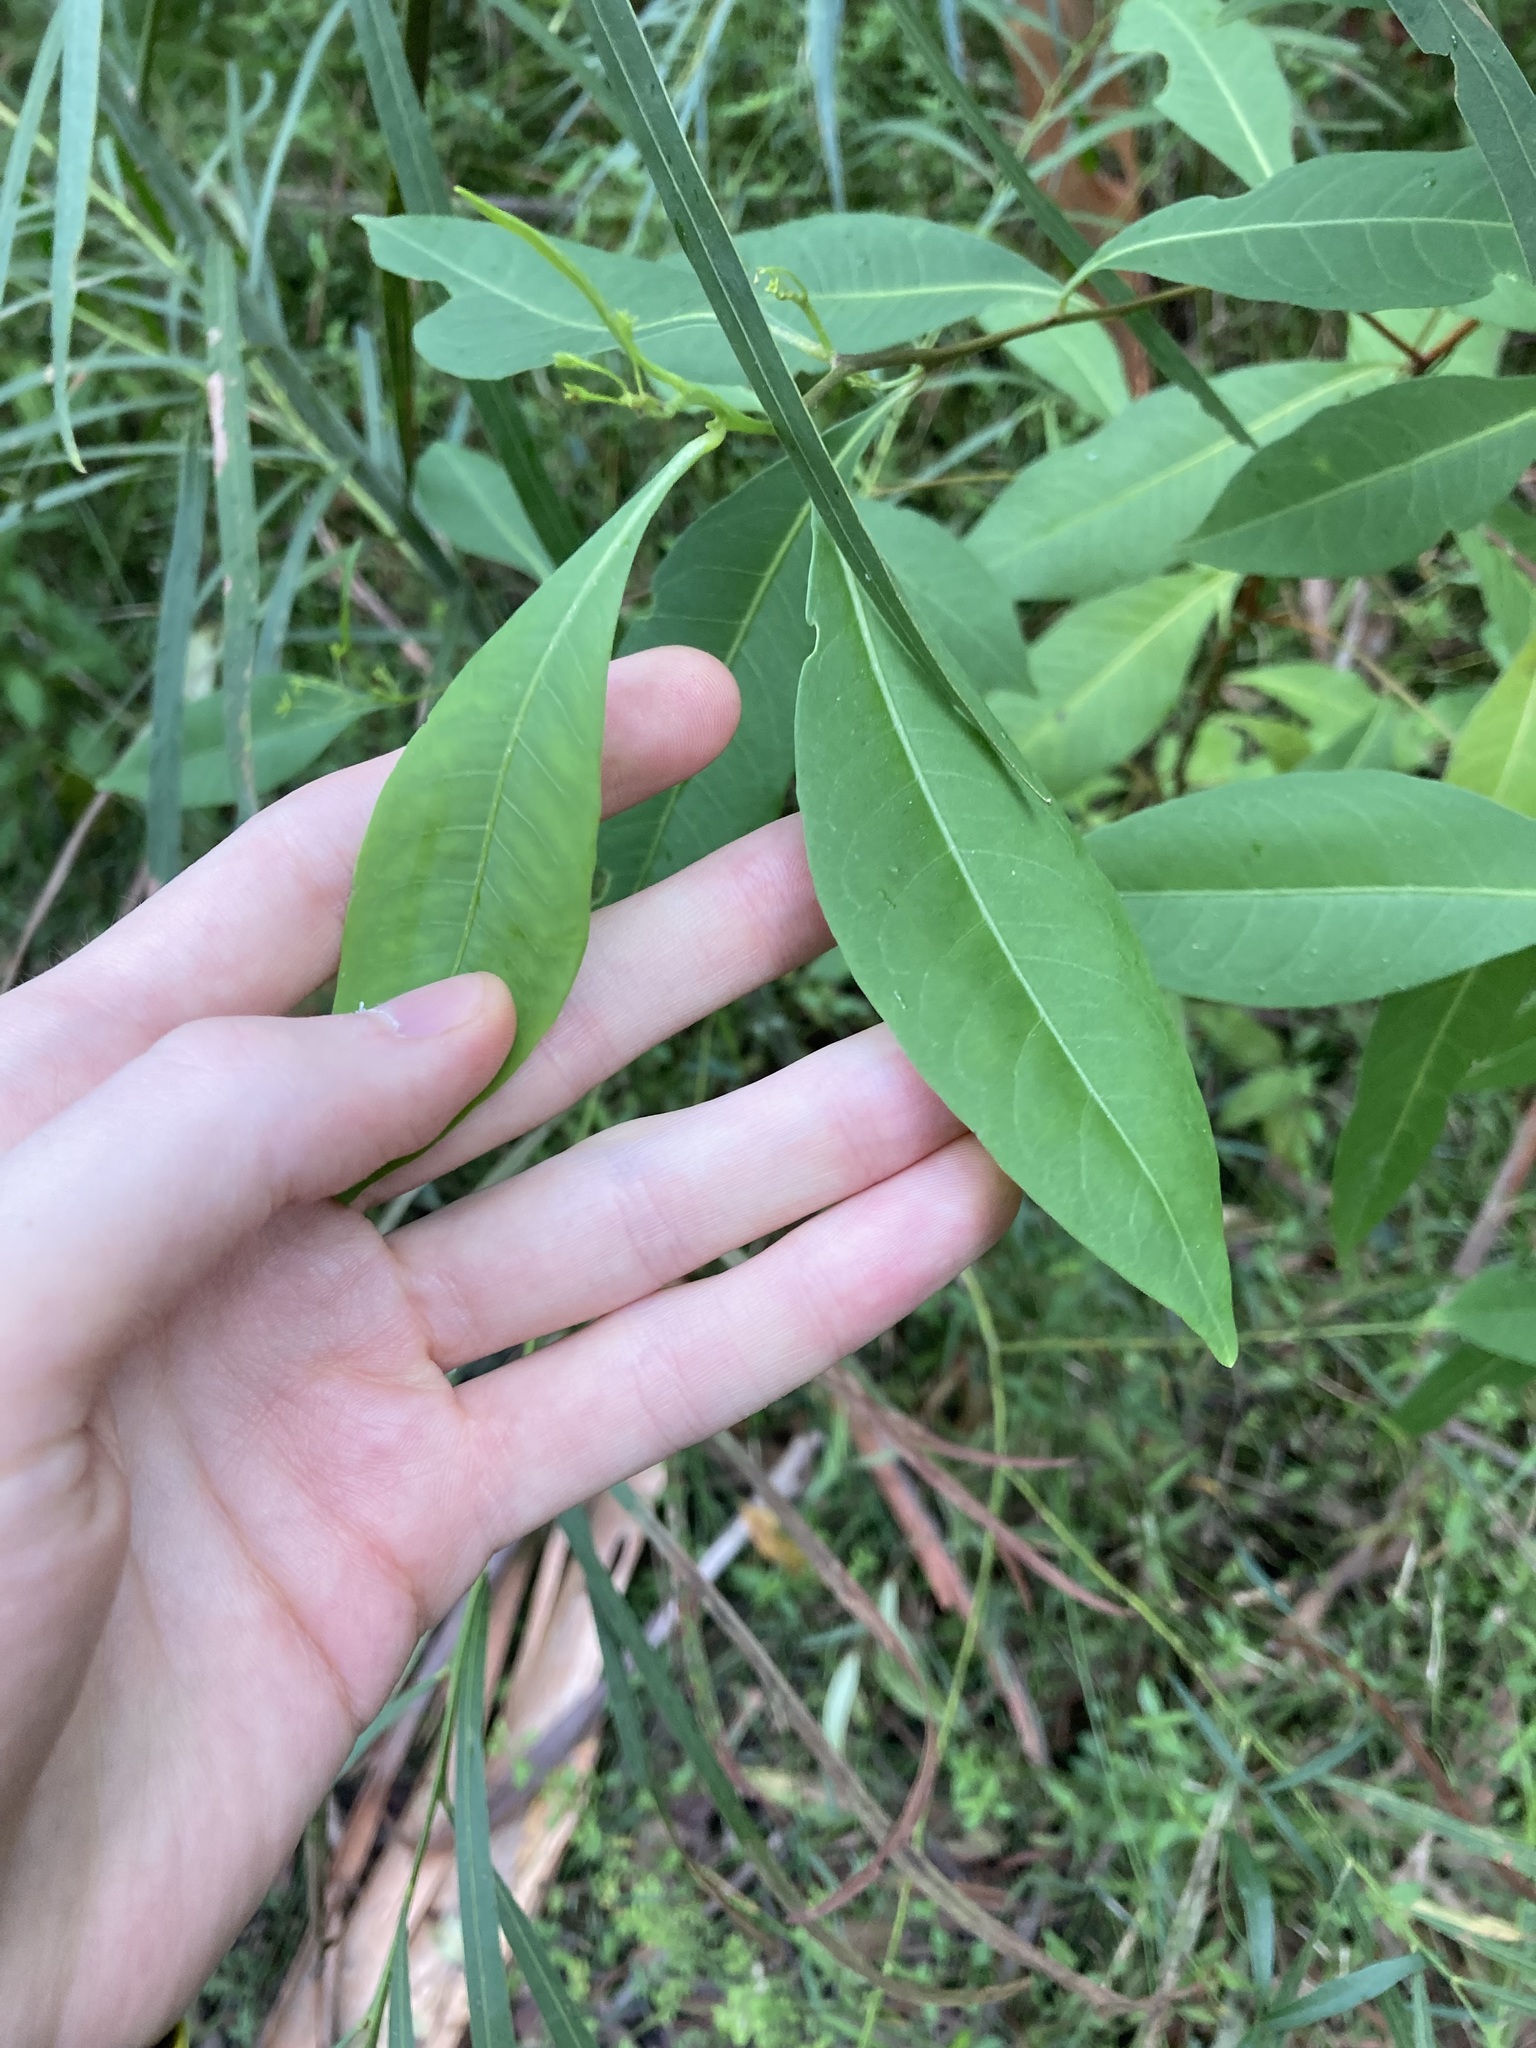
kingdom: Plantae
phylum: Tracheophyta
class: Magnoliopsida
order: Sapindales
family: Sapindaceae
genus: Dodonaea
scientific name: Dodonaea triquetra
